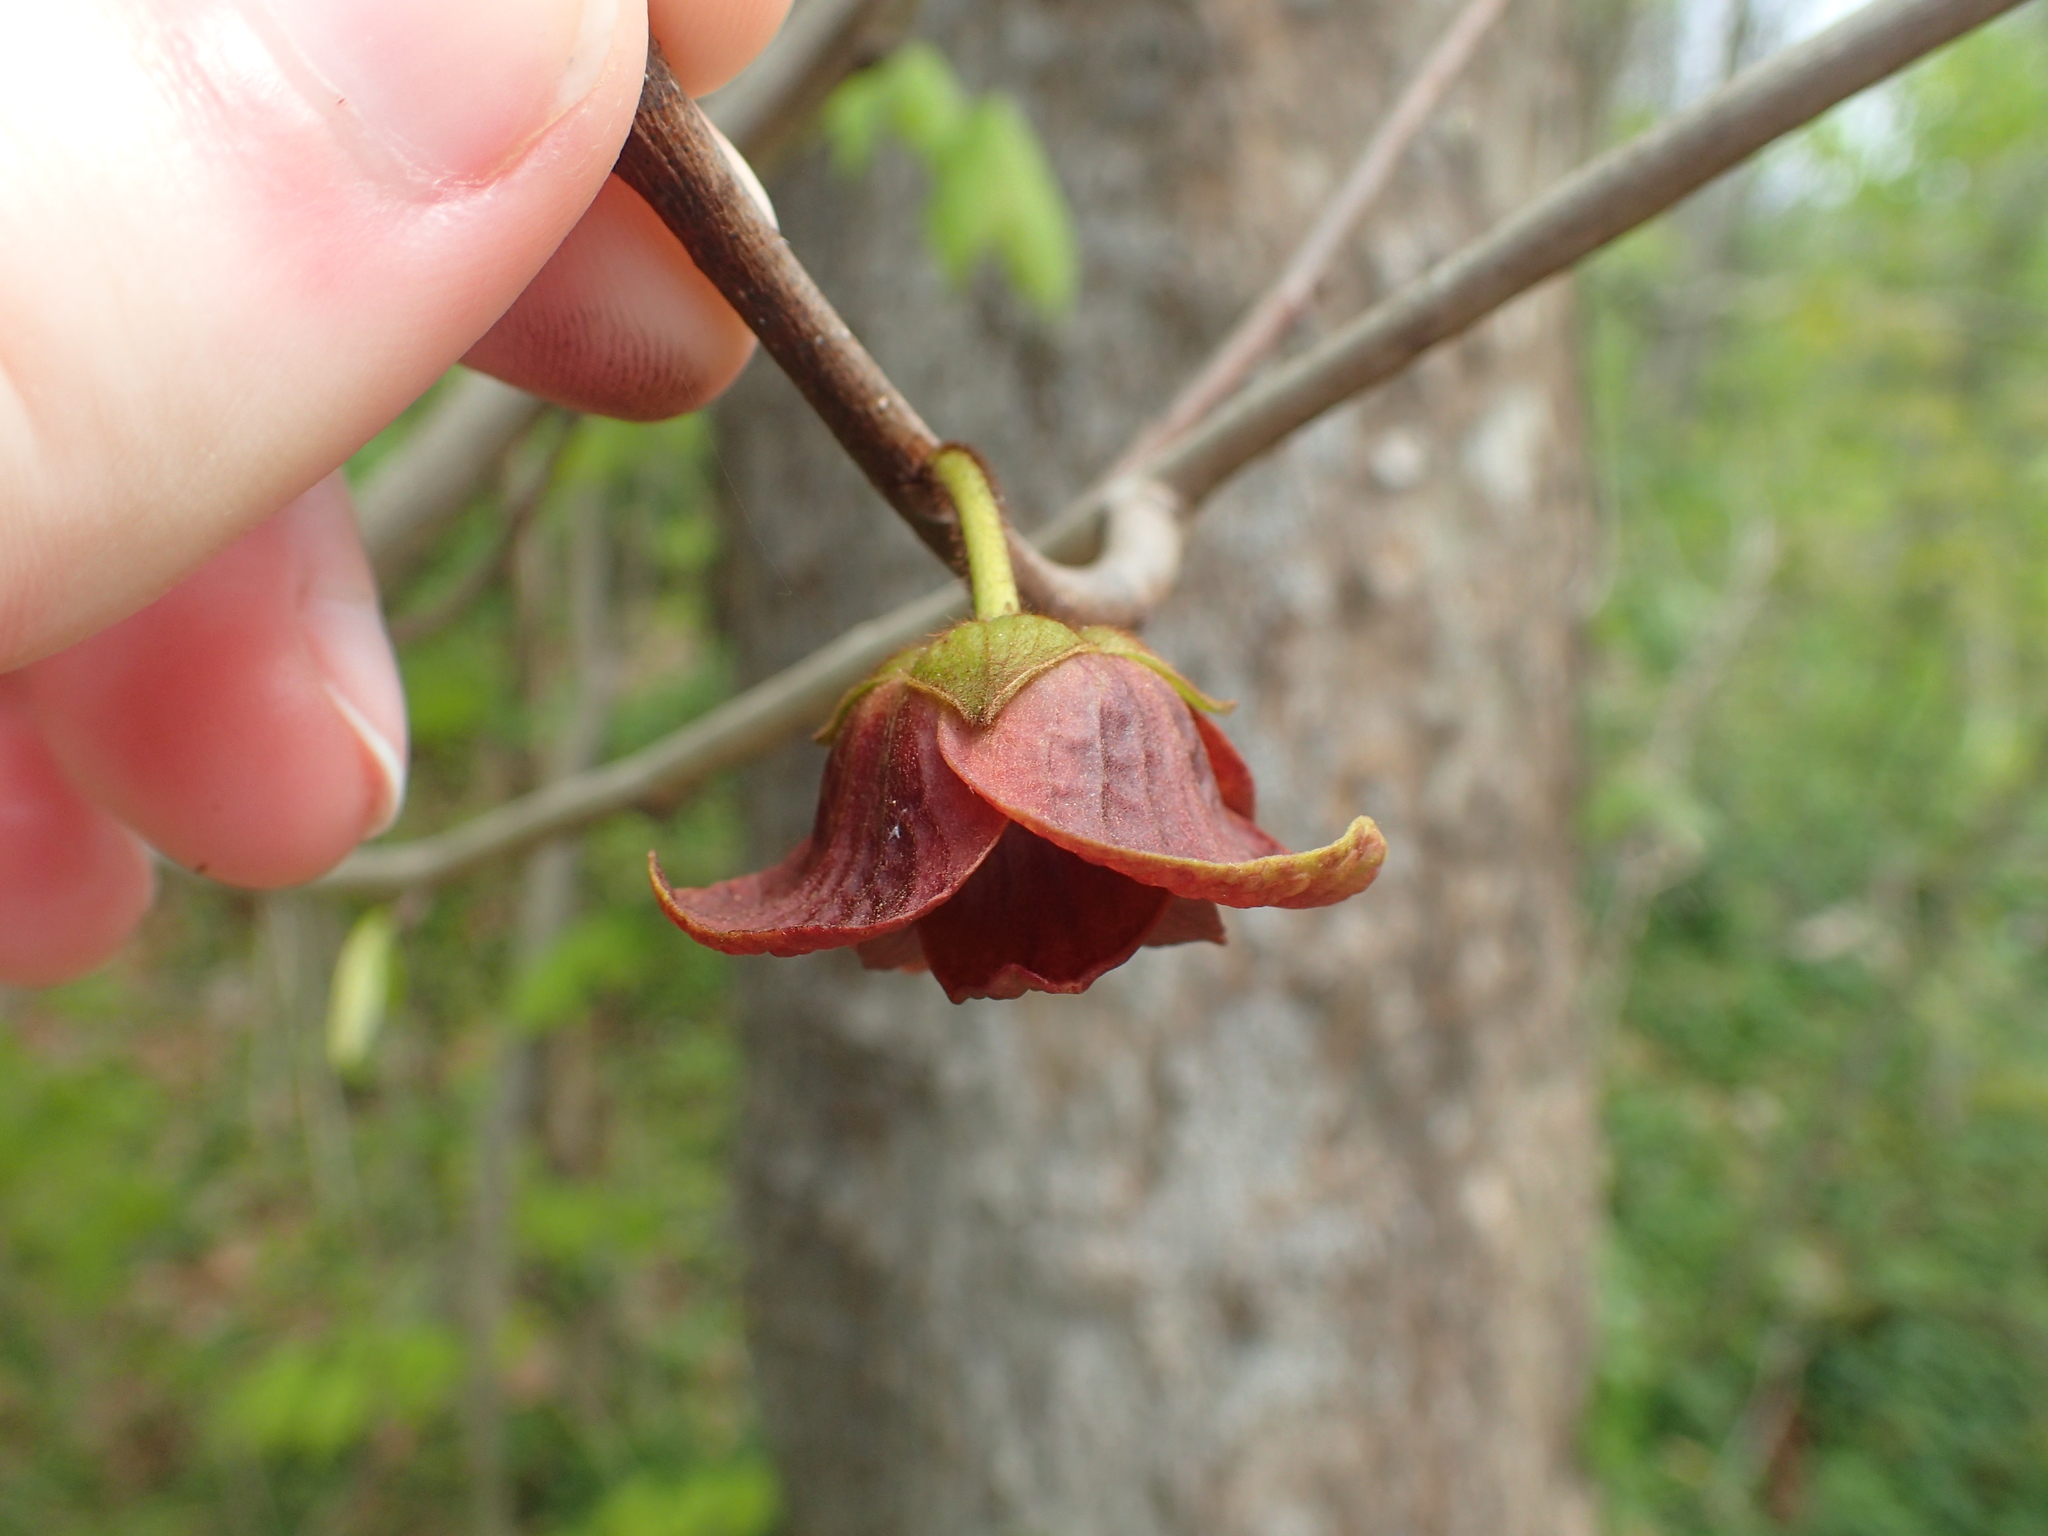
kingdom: Plantae
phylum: Tracheophyta
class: Magnoliopsida
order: Magnoliales
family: Annonaceae
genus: Asimina
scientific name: Asimina triloba
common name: Dog-banana
